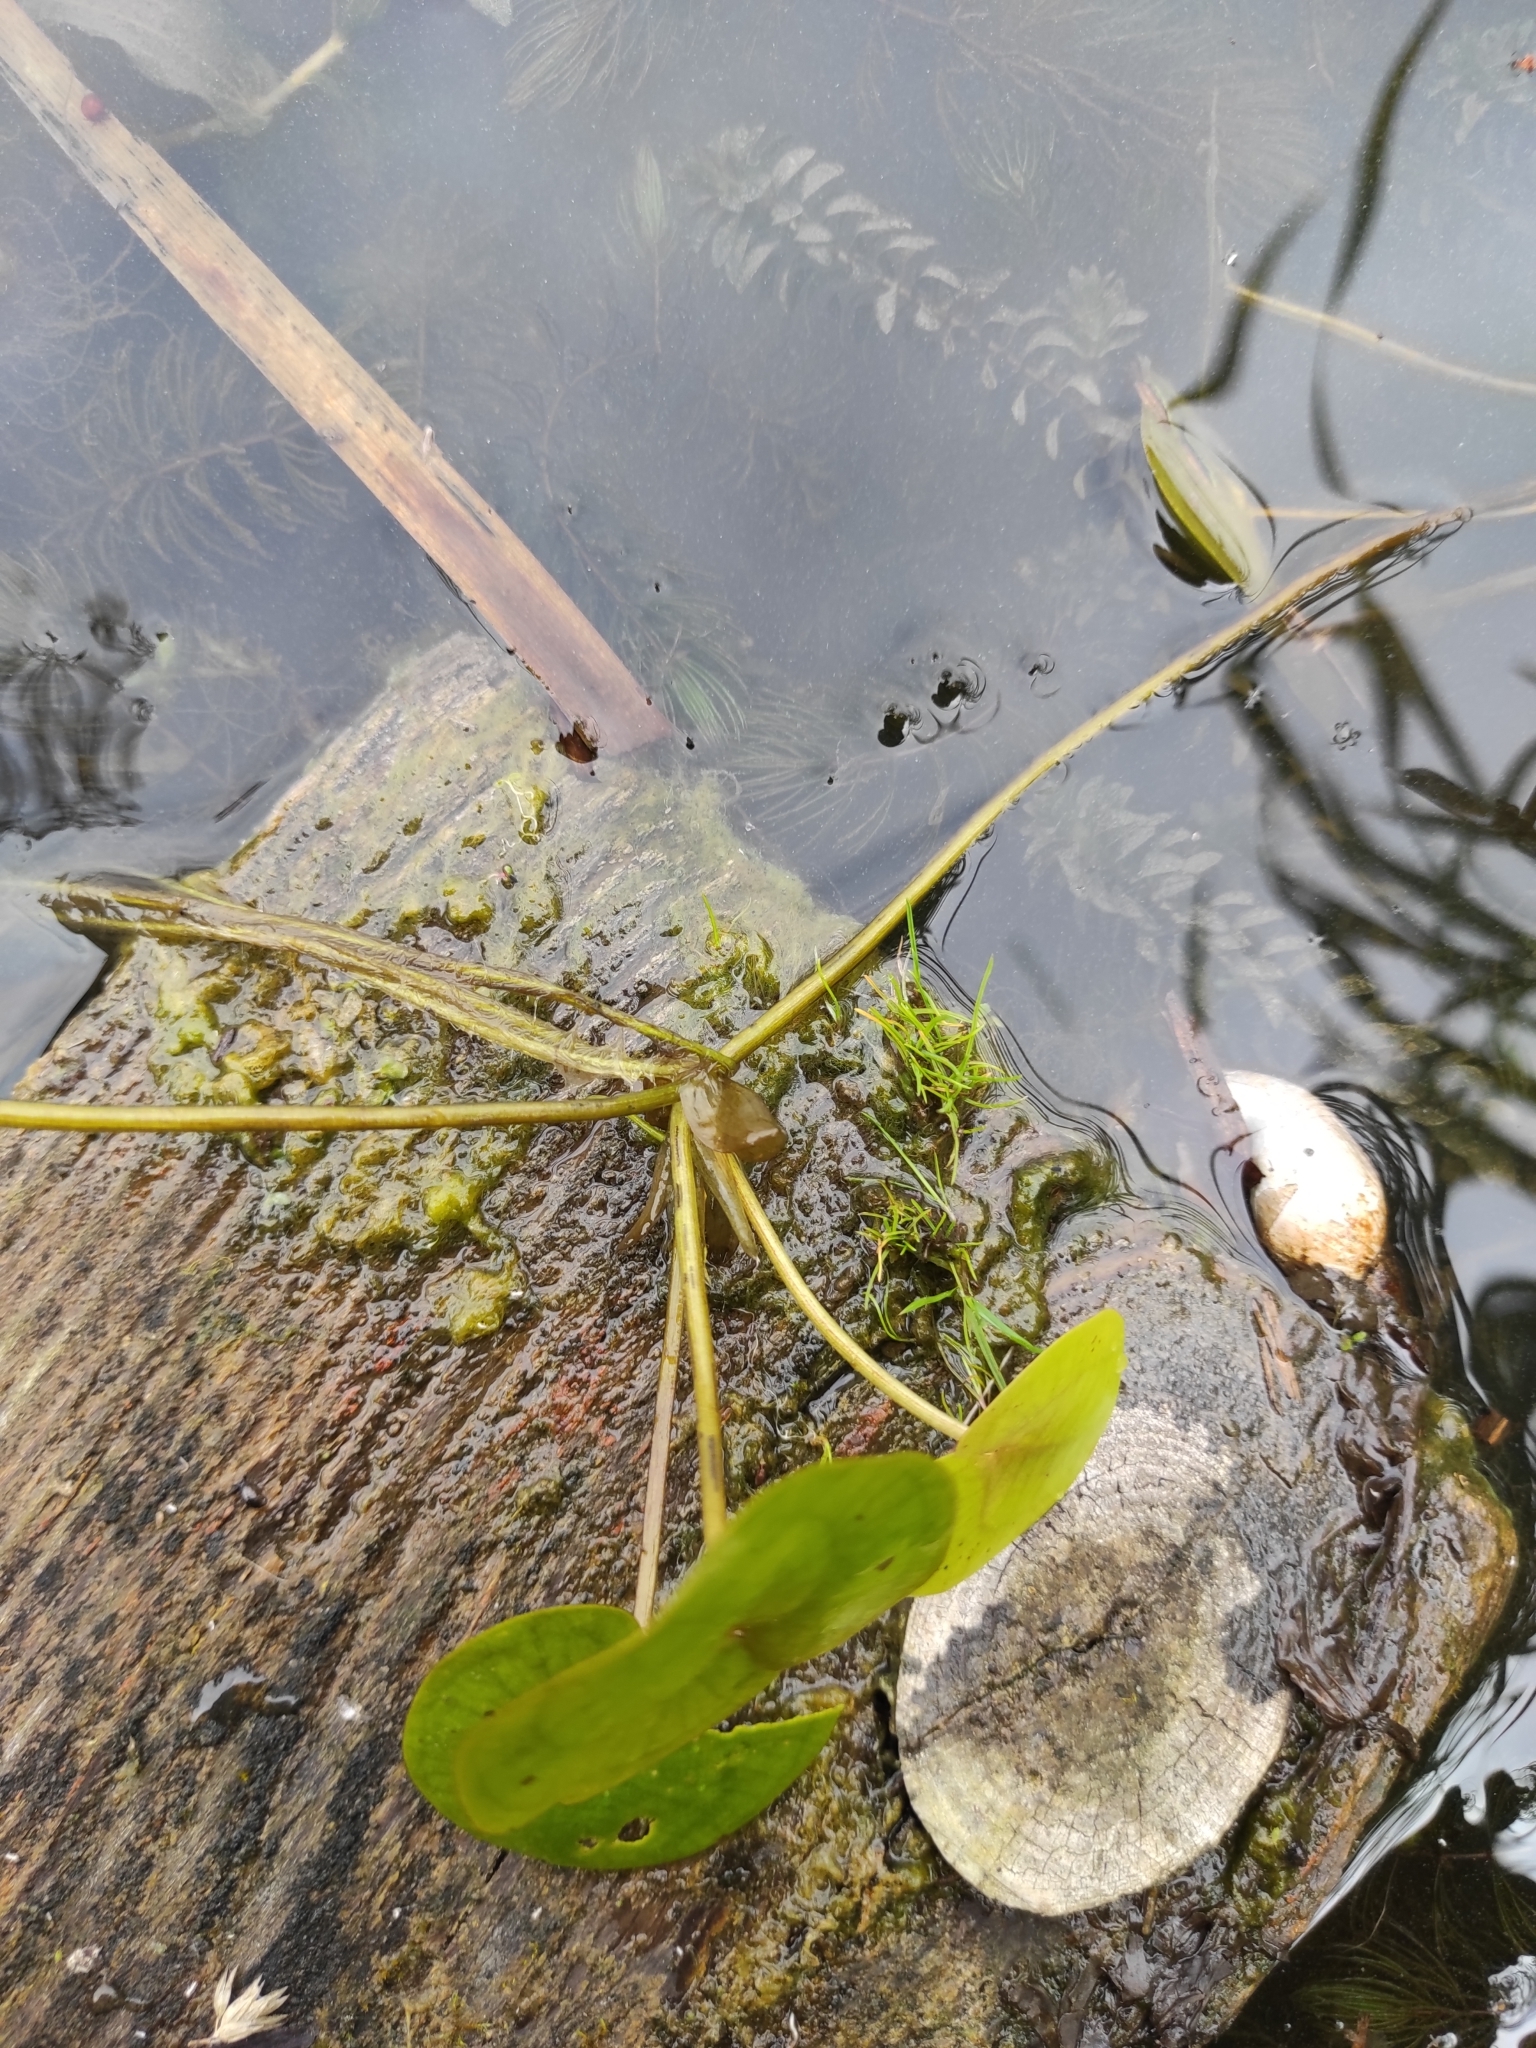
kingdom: Plantae
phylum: Tracheophyta
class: Liliopsida
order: Alismatales
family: Hydrocharitaceae
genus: Hydrocharis
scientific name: Hydrocharis morsus-ranae
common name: Frogbit
